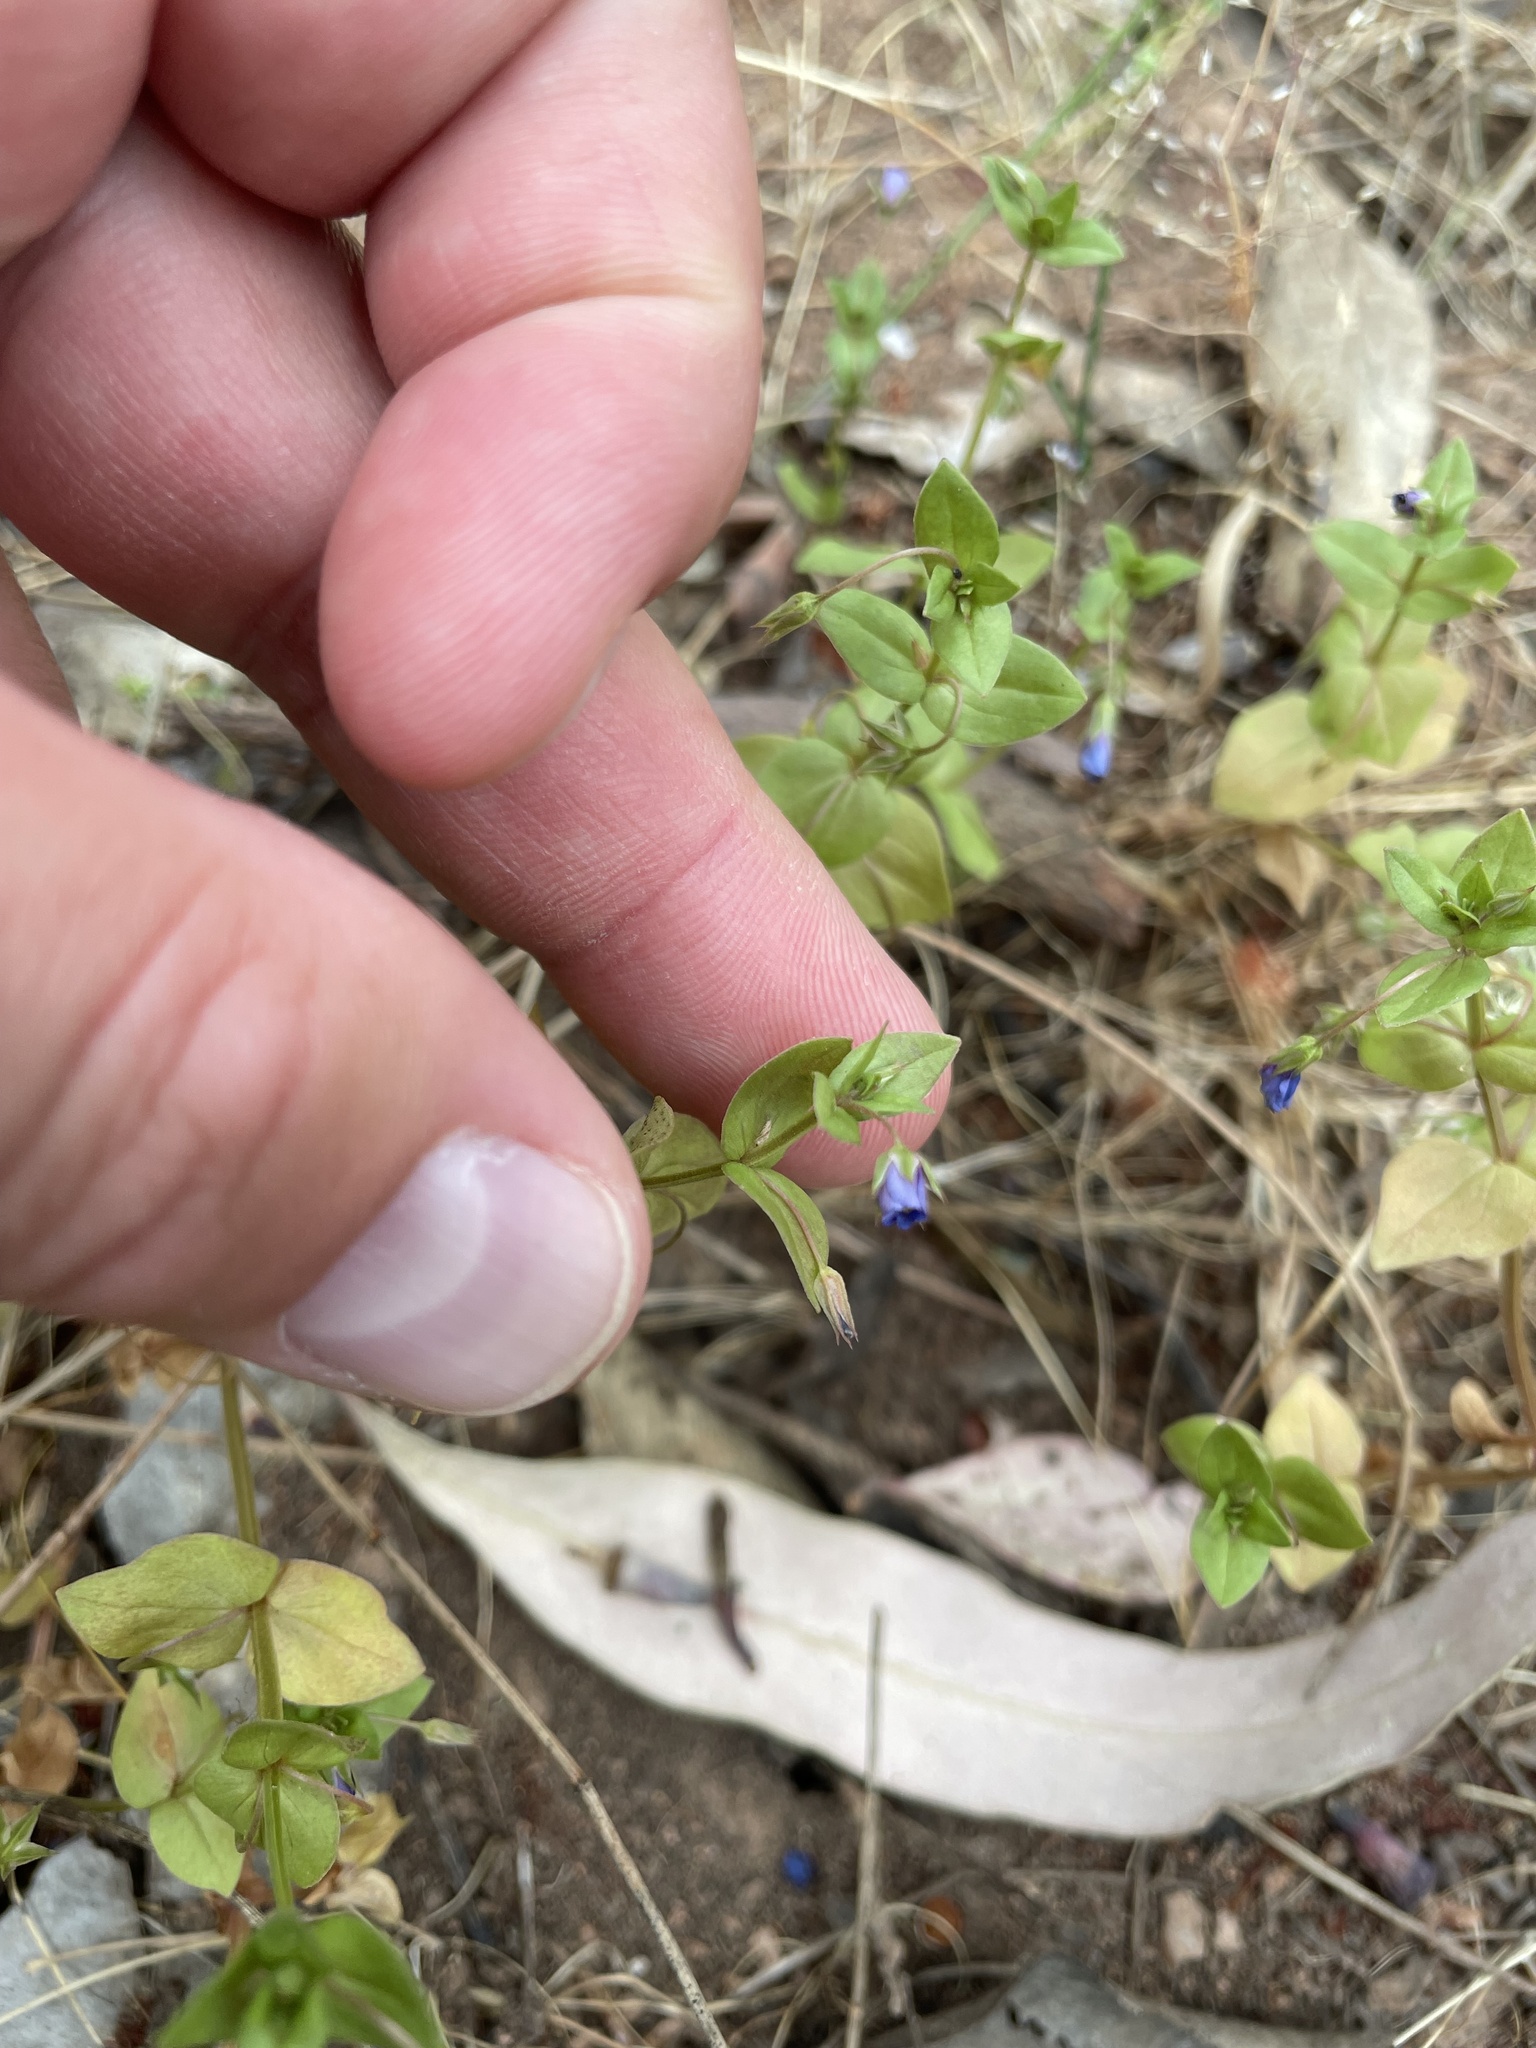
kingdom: Plantae
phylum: Tracheophyta
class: Magnoliopsida
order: Ericales
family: Primulaceae
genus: Lysimachia
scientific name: Lysimachia loeflingii
